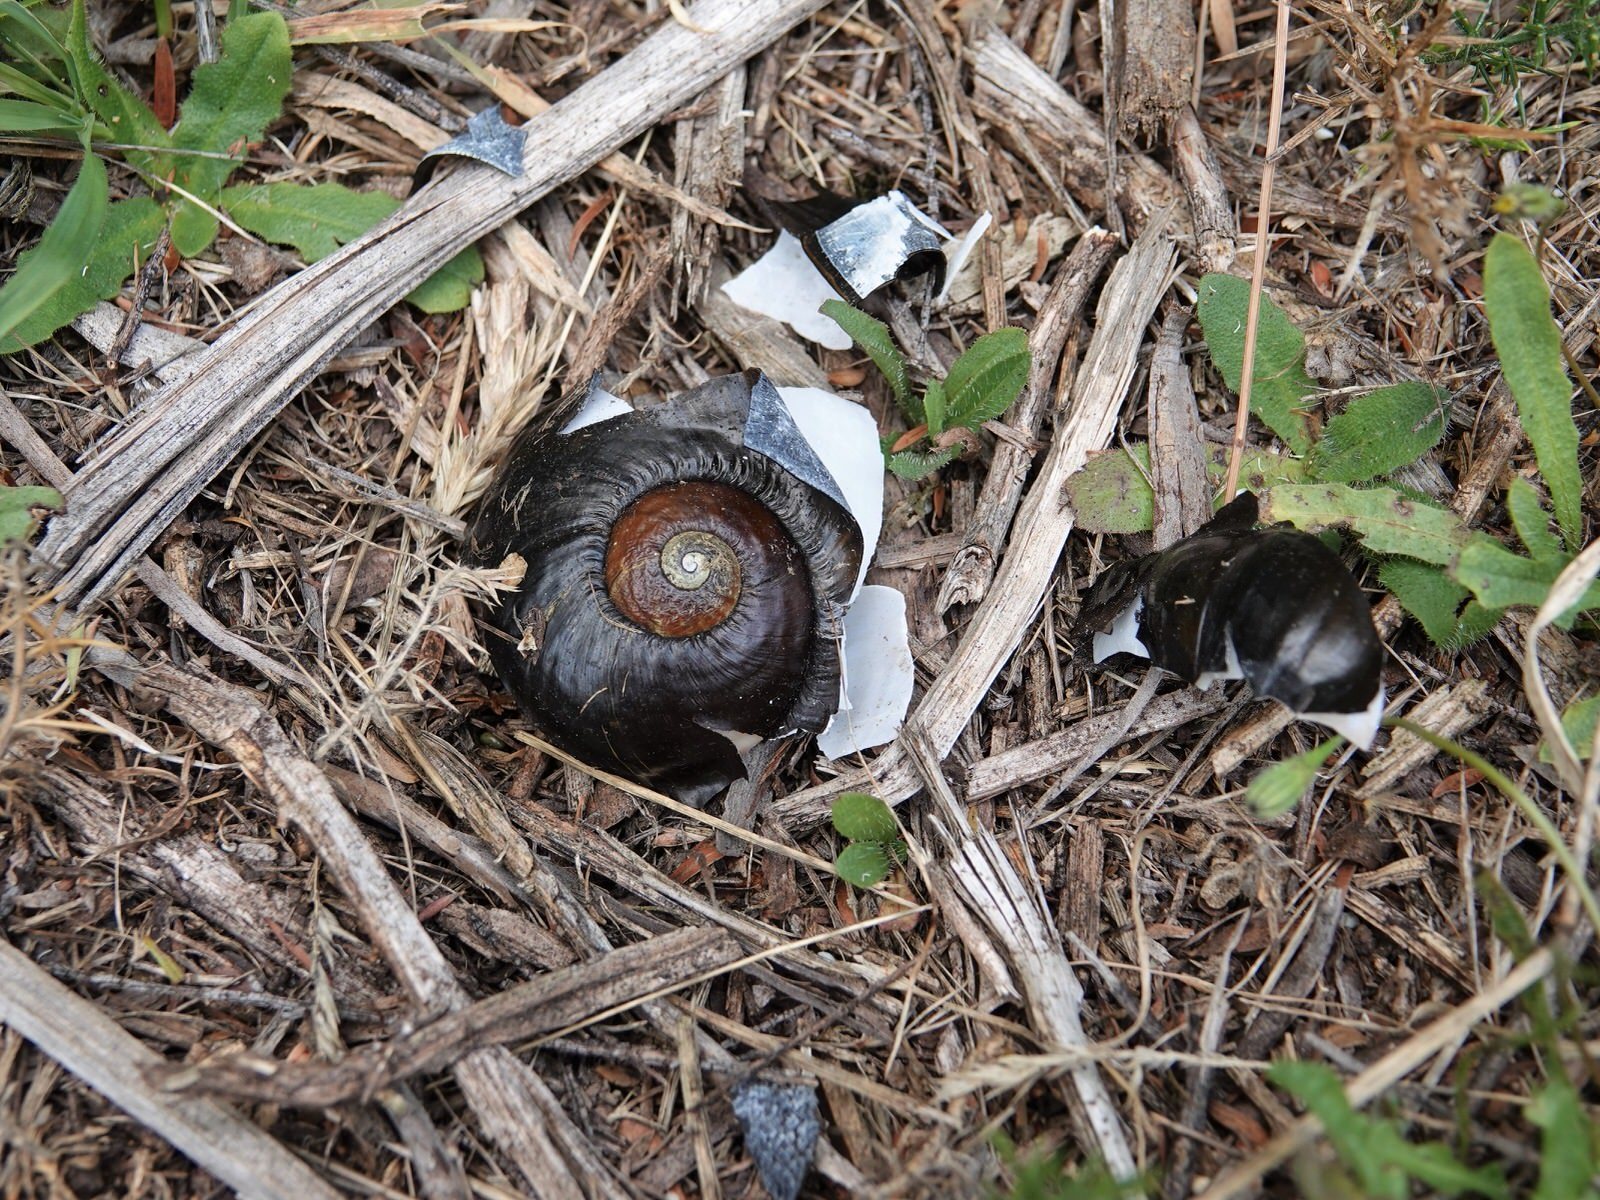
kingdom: Animalia
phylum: Mollusca
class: Gastropoda
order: Stylommatophora
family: Rhytididae
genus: Paryphanta
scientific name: Paryphanta busbyi
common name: Kauri snail
